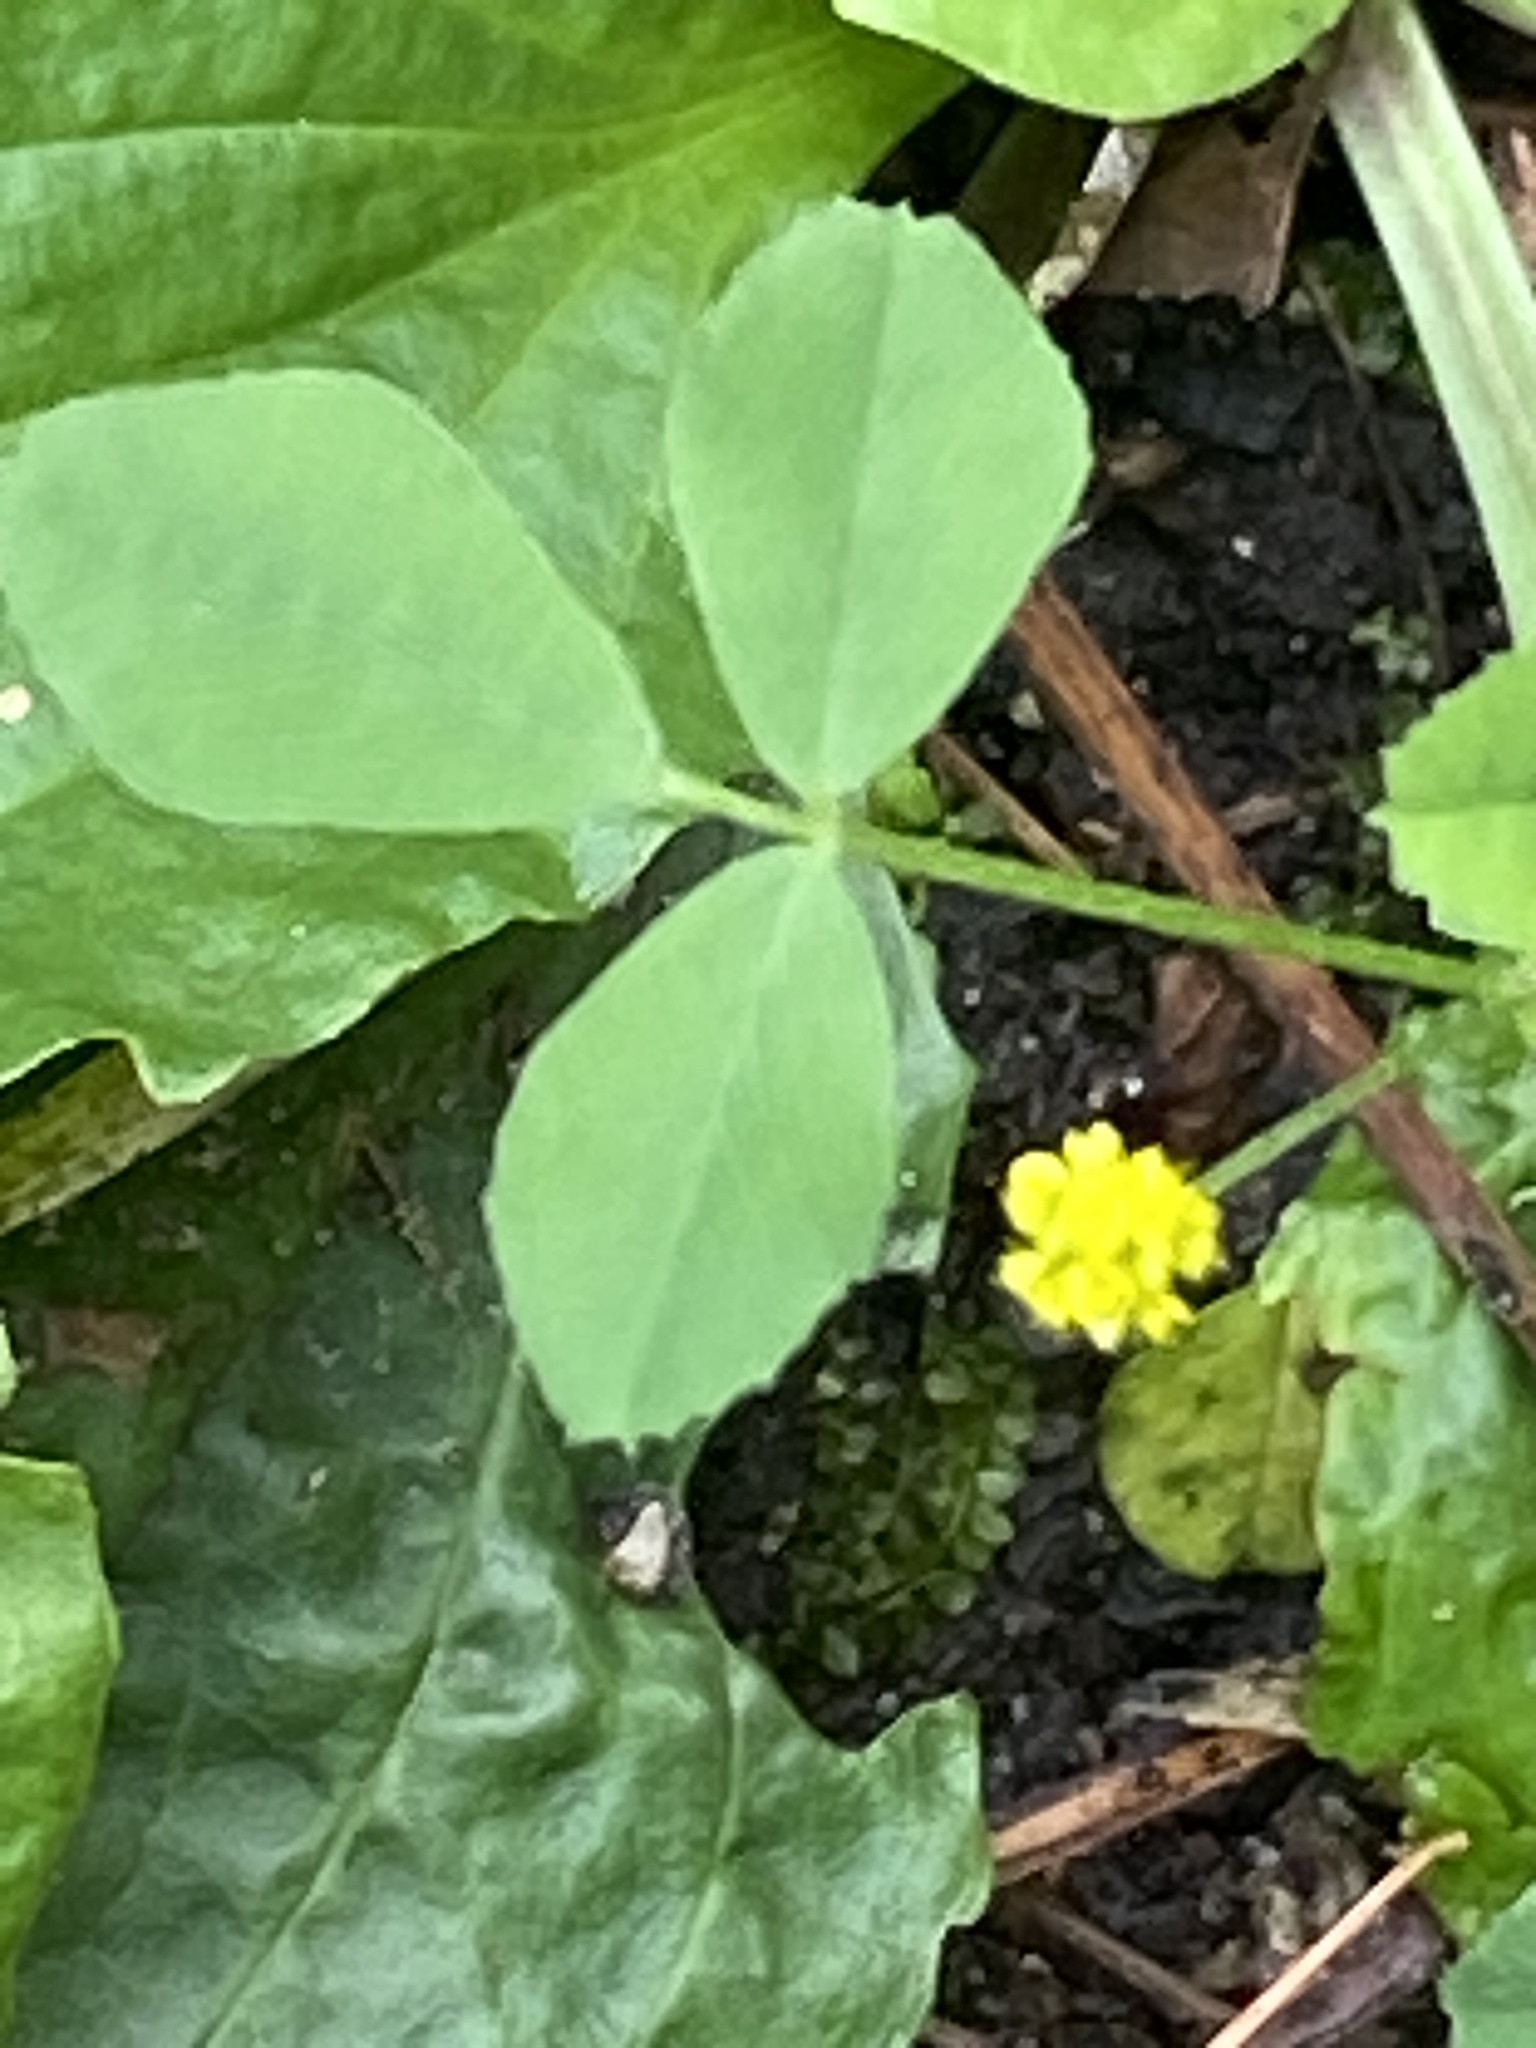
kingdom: Plantae
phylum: Tracheophyta
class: Magnoliopsida
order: Fabales
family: Fabaceae
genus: Medicago
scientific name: Medicago lupulina
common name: Black medick
